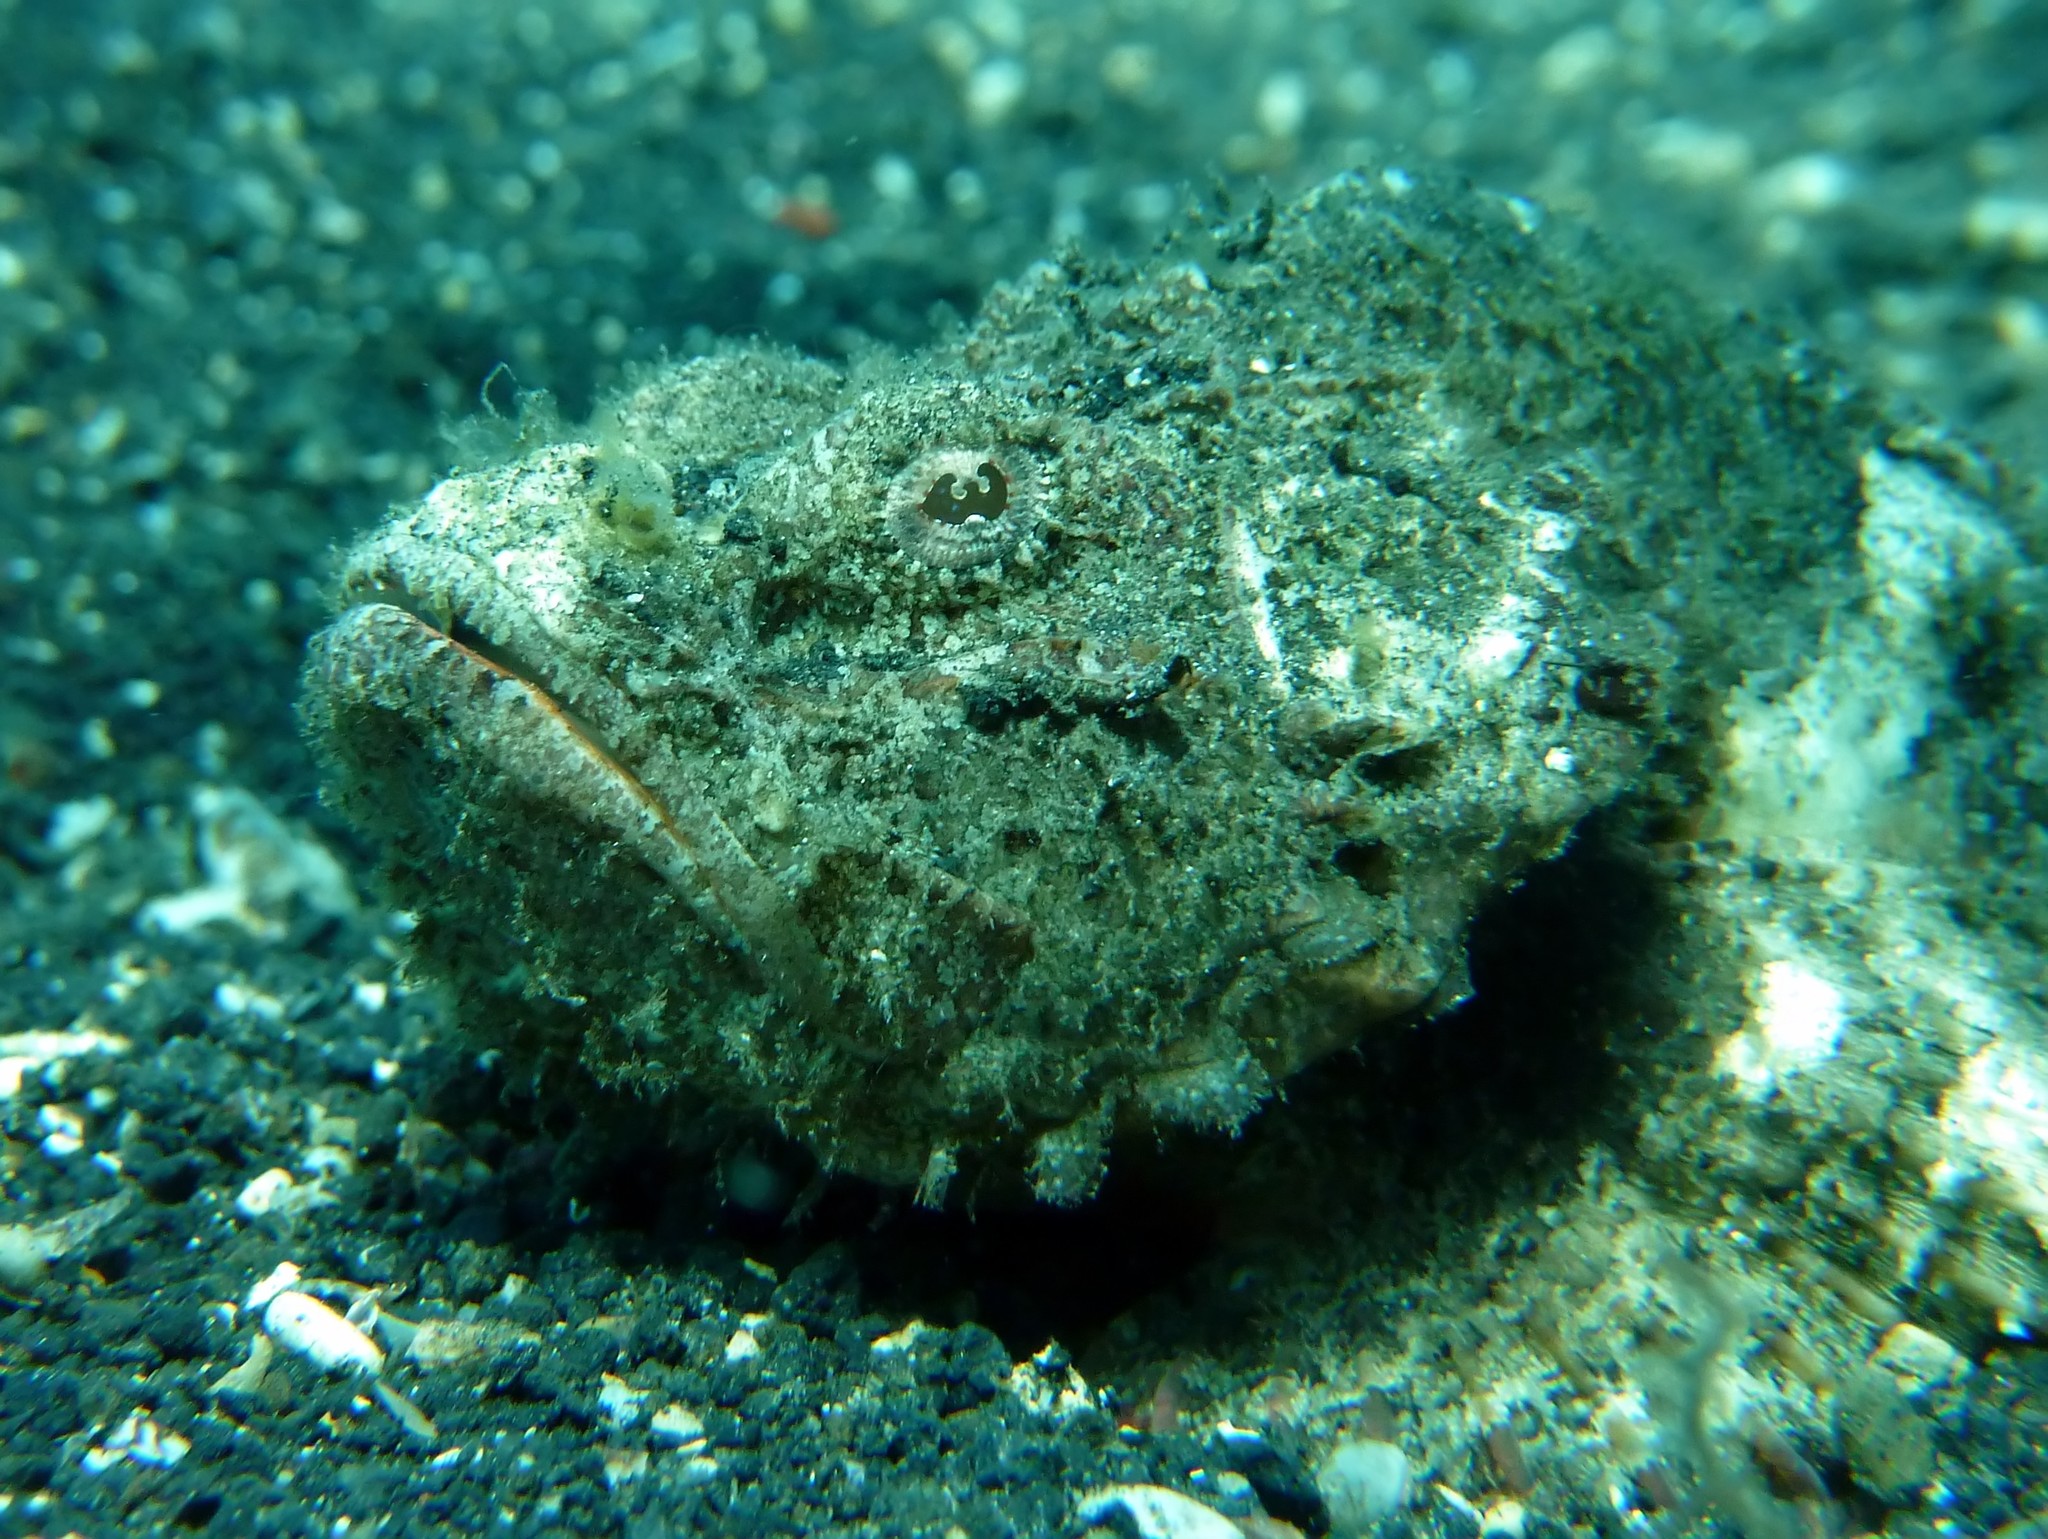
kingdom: Animalia
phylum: Chordata
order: Scorpaeniformes
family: Scorpaenidae
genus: Scorpaenopsis
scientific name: Scorpaenopsis diabolus
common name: False stonefish
